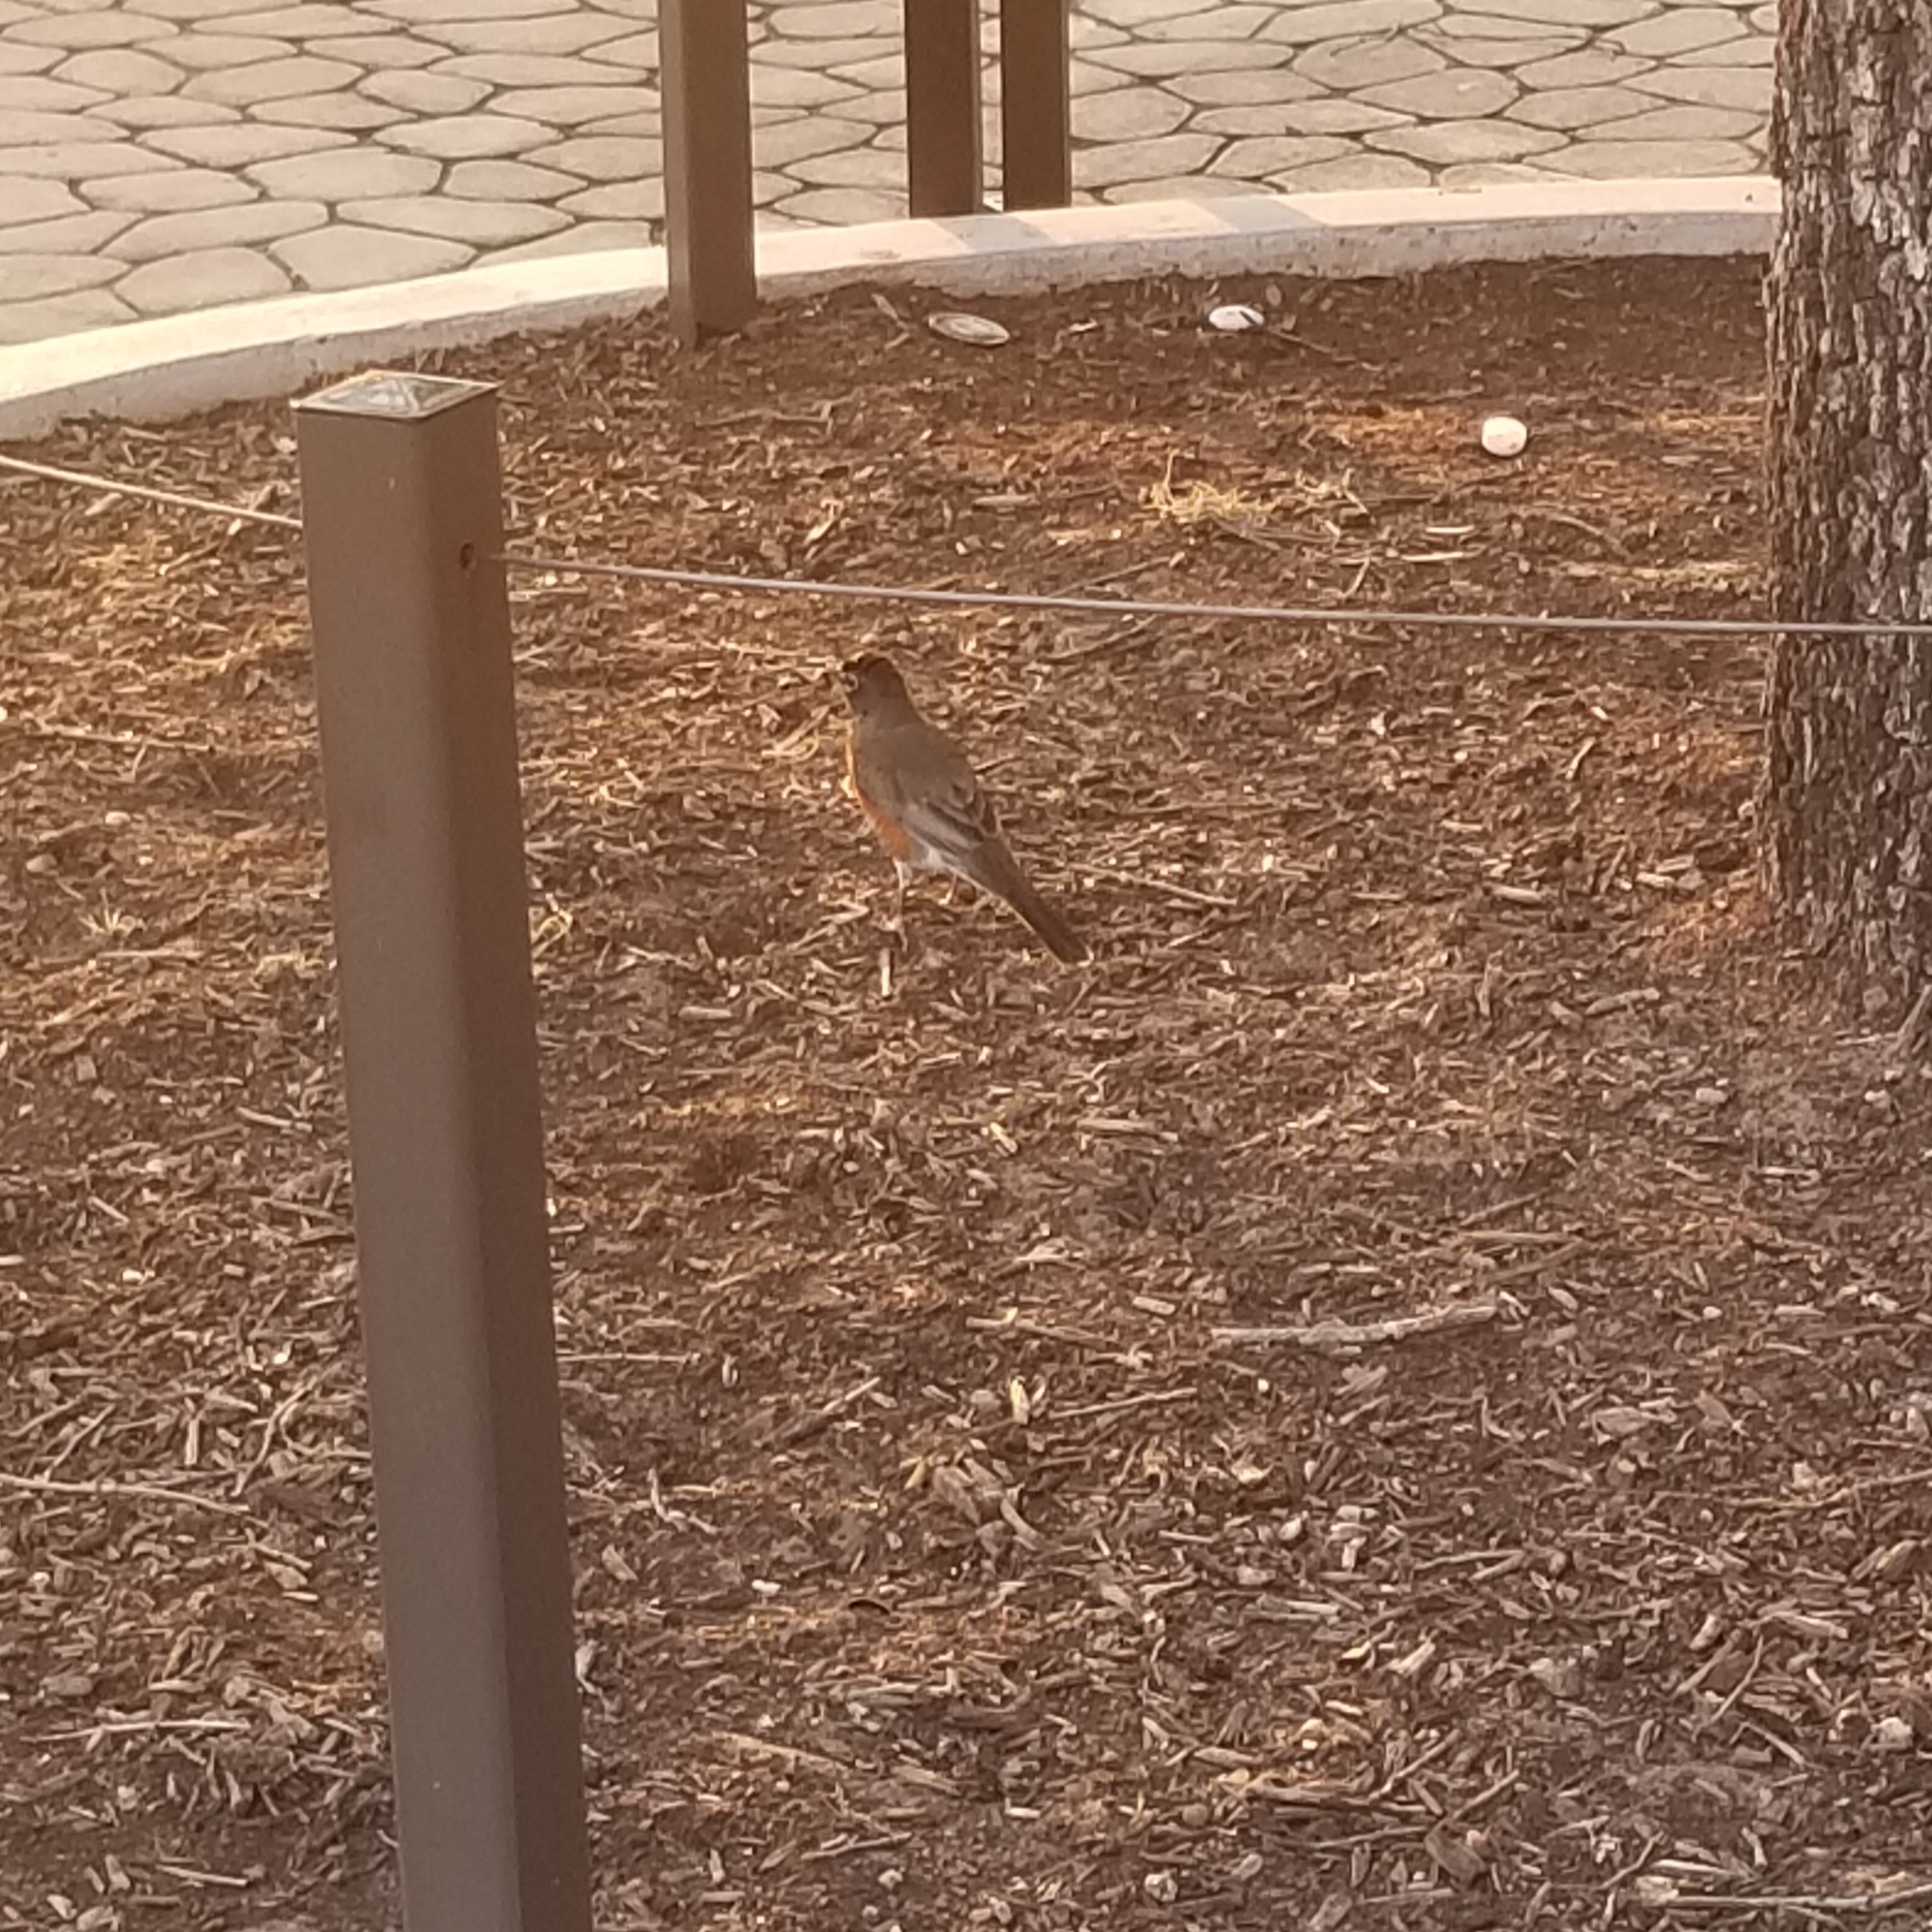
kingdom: Animalia
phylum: Chordata
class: Aves
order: Passeriformes
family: Turdidae
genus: Turdus
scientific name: Turdus migratorius
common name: American robin
